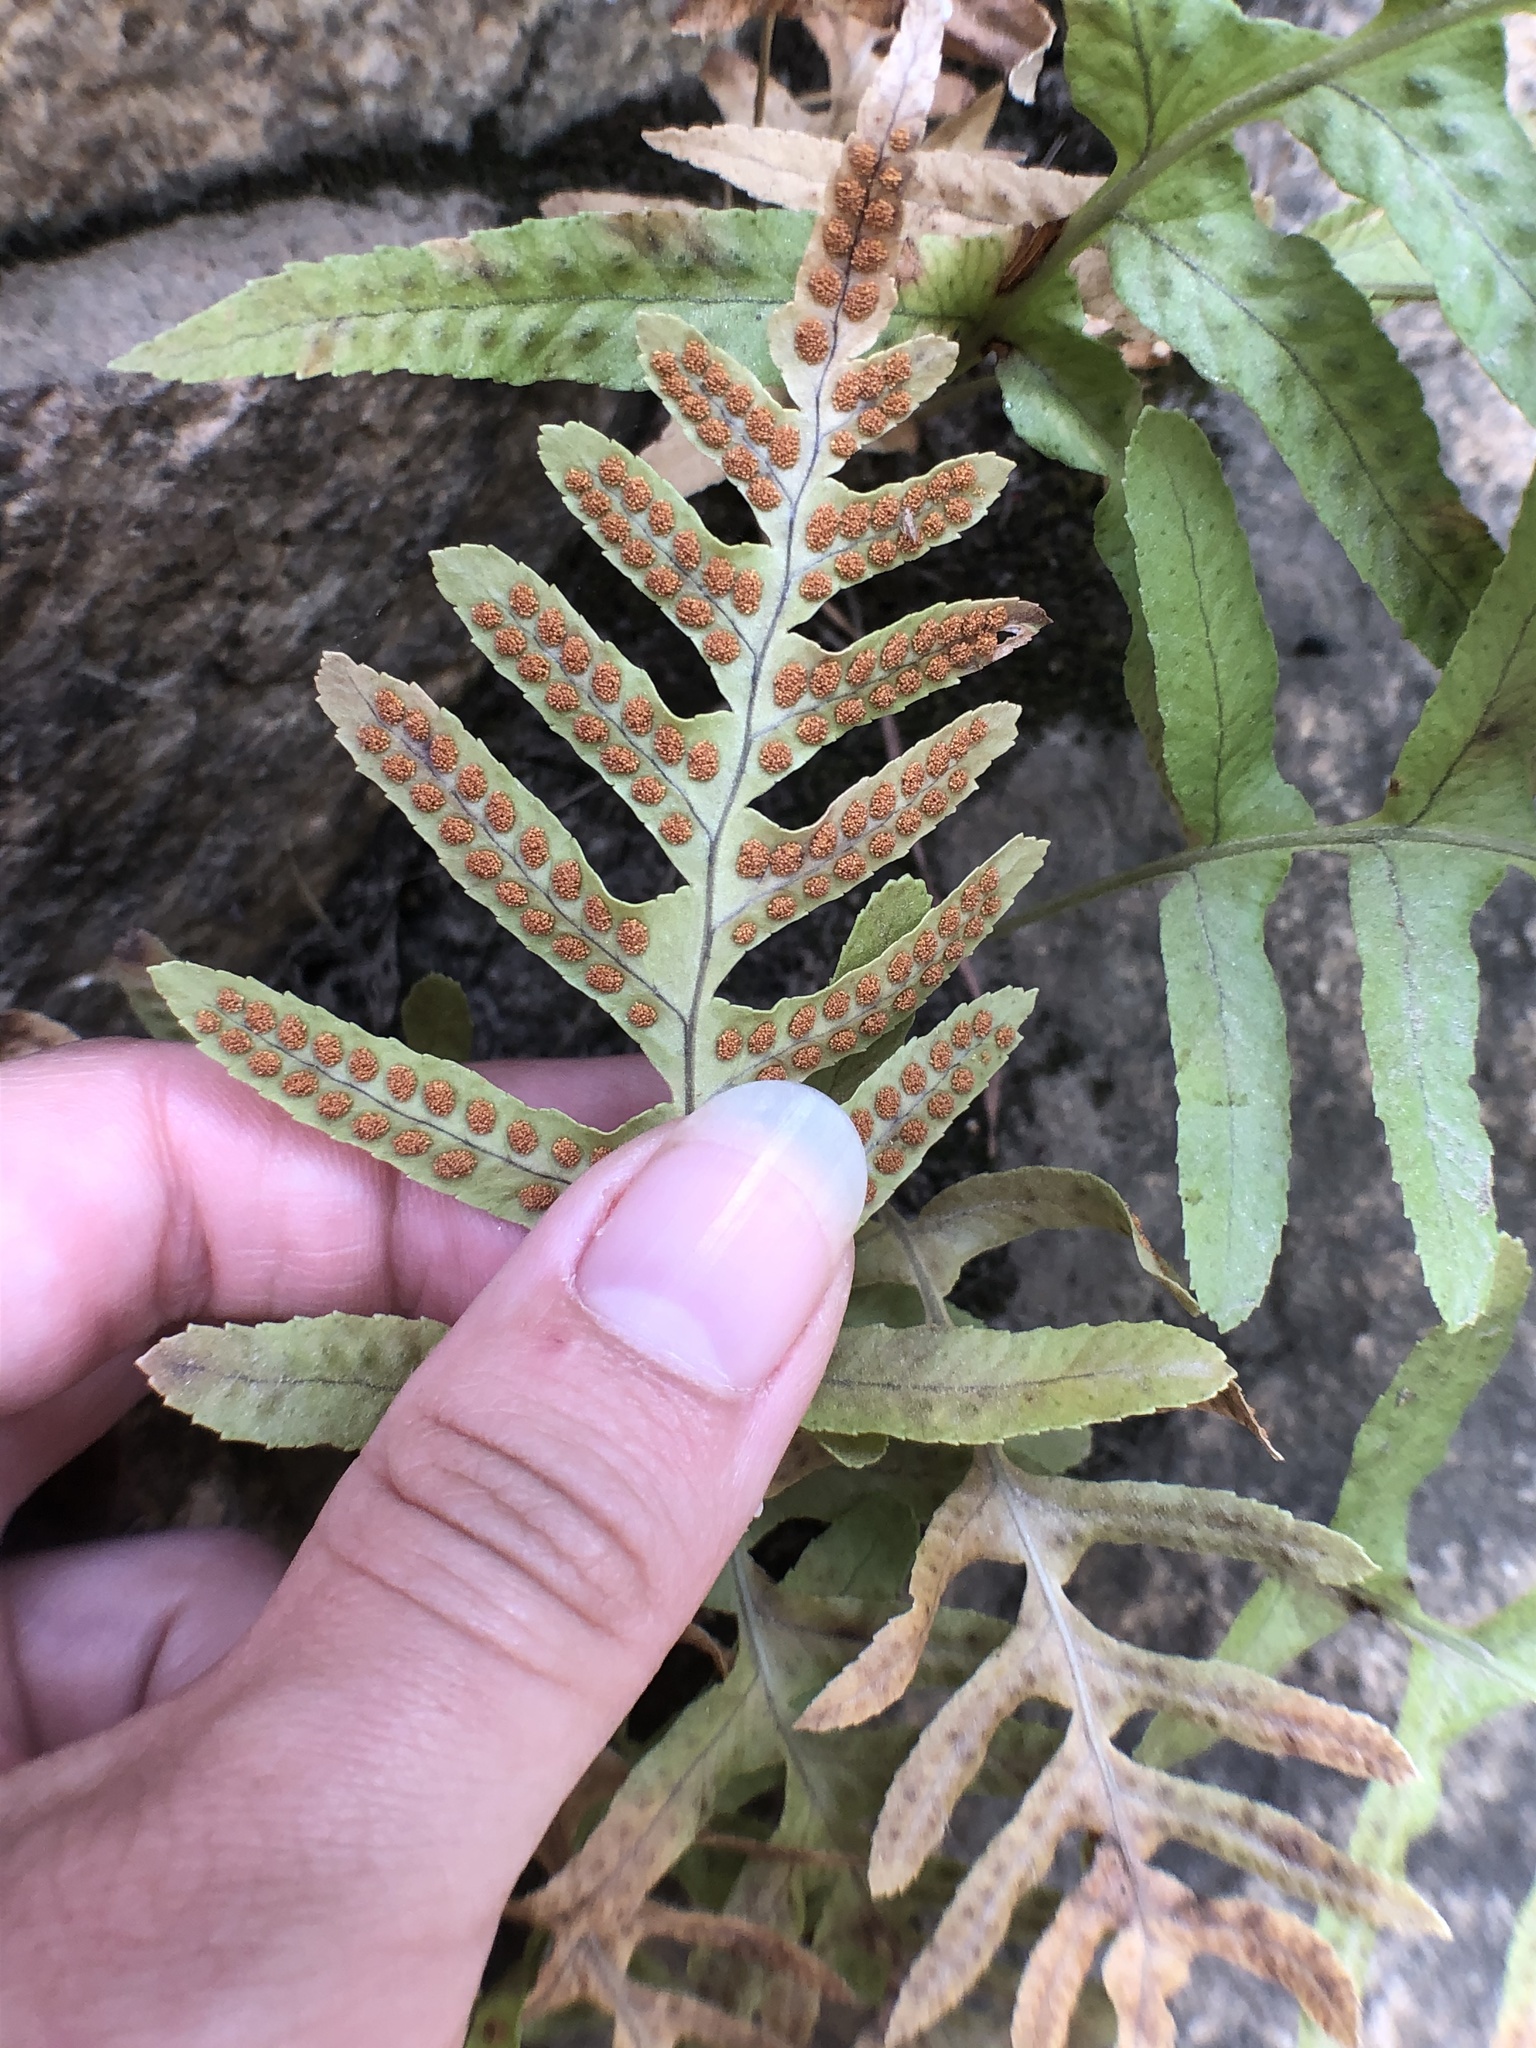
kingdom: Plantae
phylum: Tracheophyta
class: Polypodiopsida
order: Polypodiales
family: Polypodiaceae
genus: Polypodium
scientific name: Polypodium californicum
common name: California polypody
